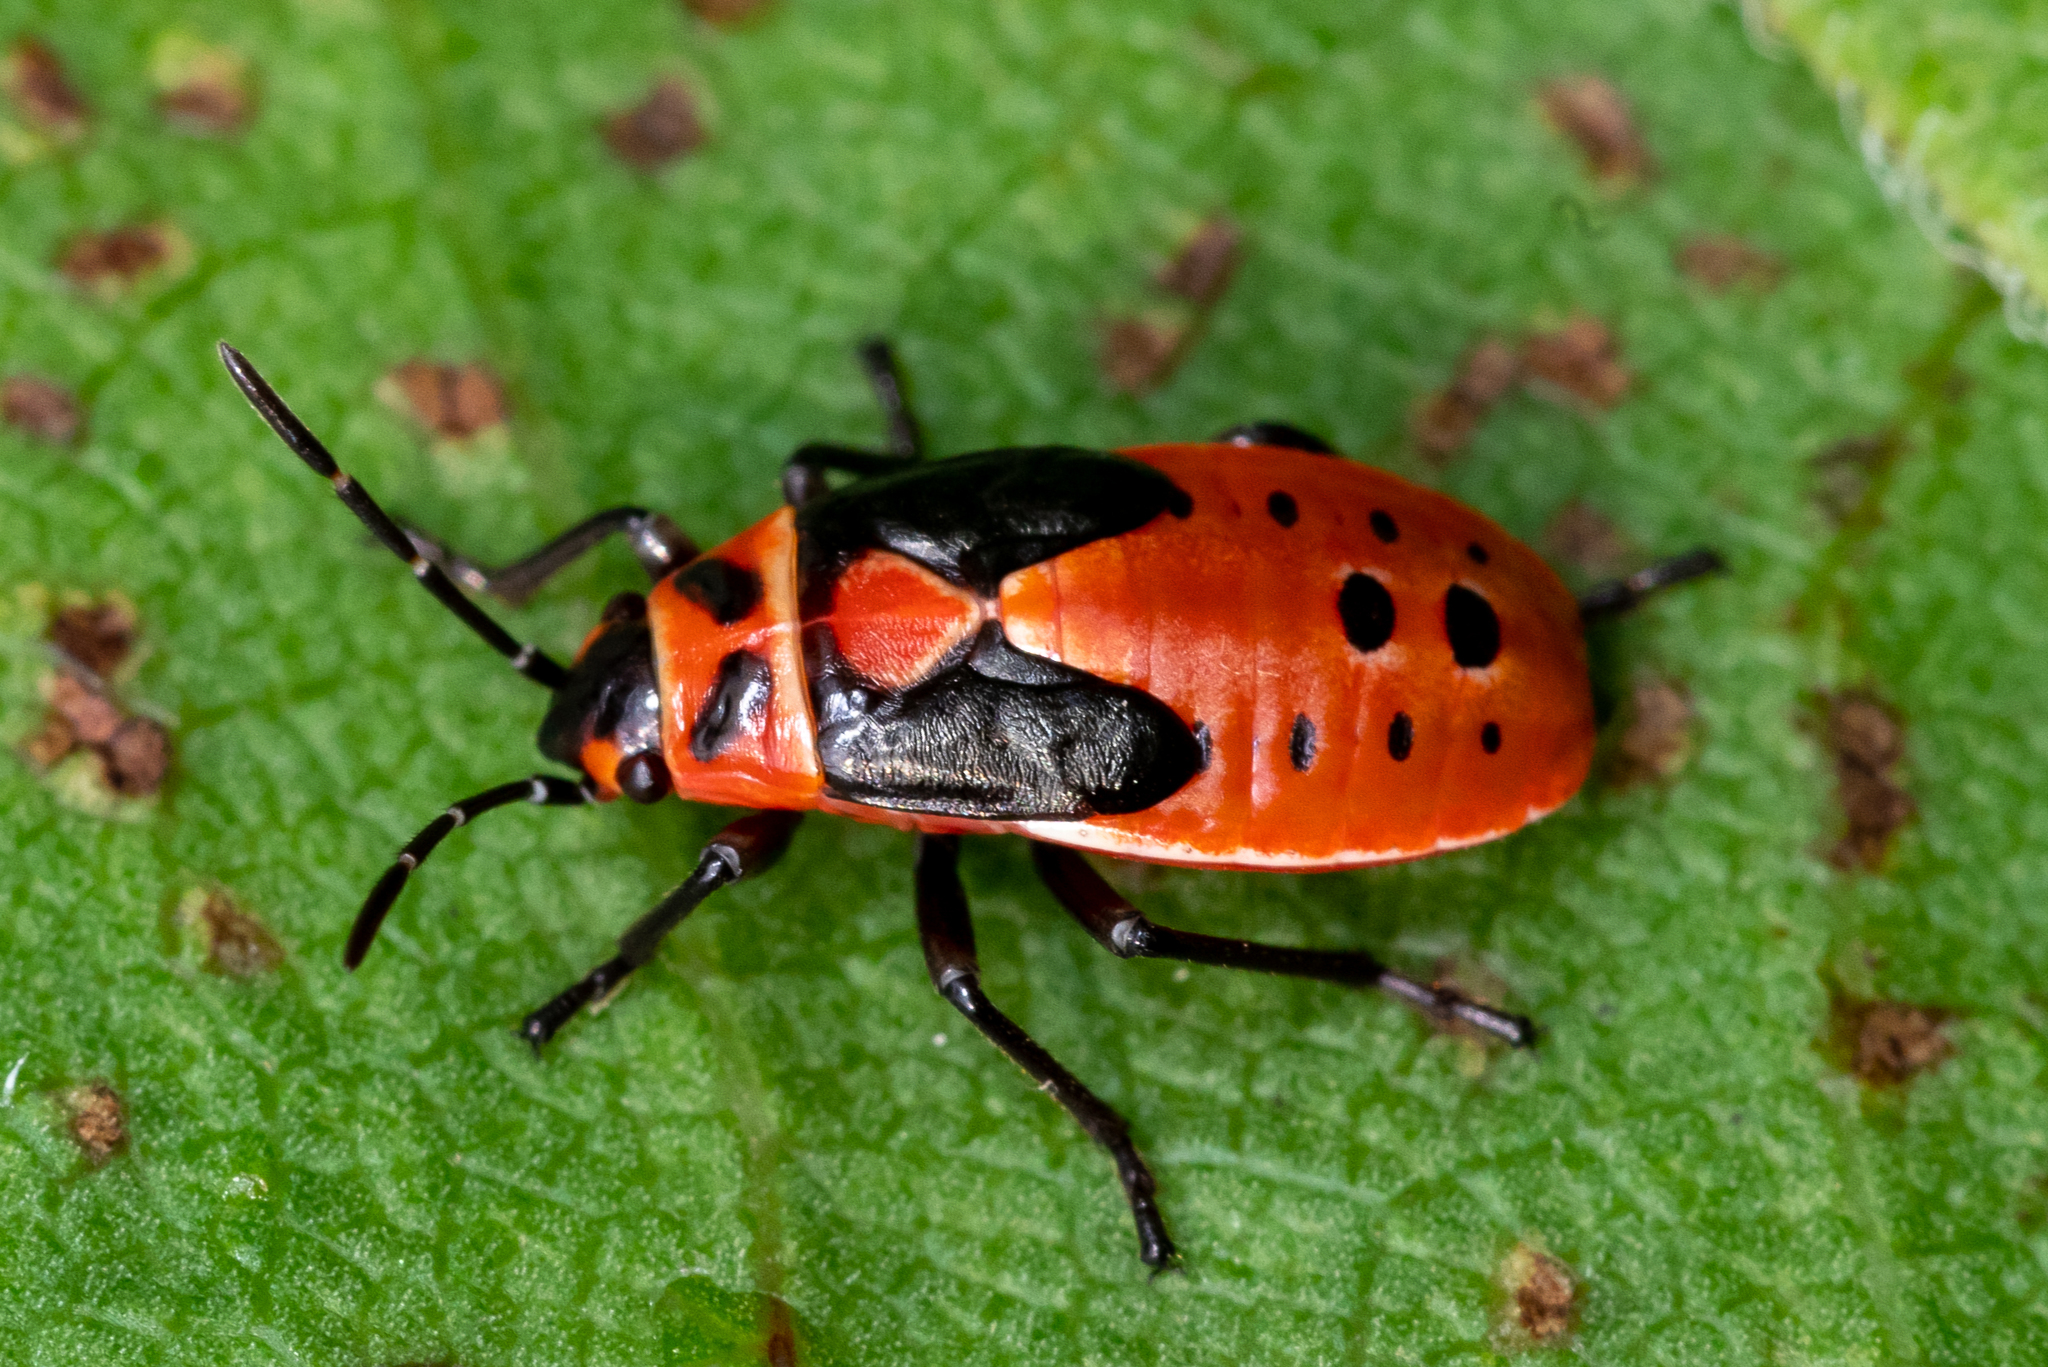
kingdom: Animalia
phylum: Arthropoda
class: Insecta
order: Hemiptera
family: Lygaeidae
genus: Lygaeus
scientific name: Lygaeus kalmii
